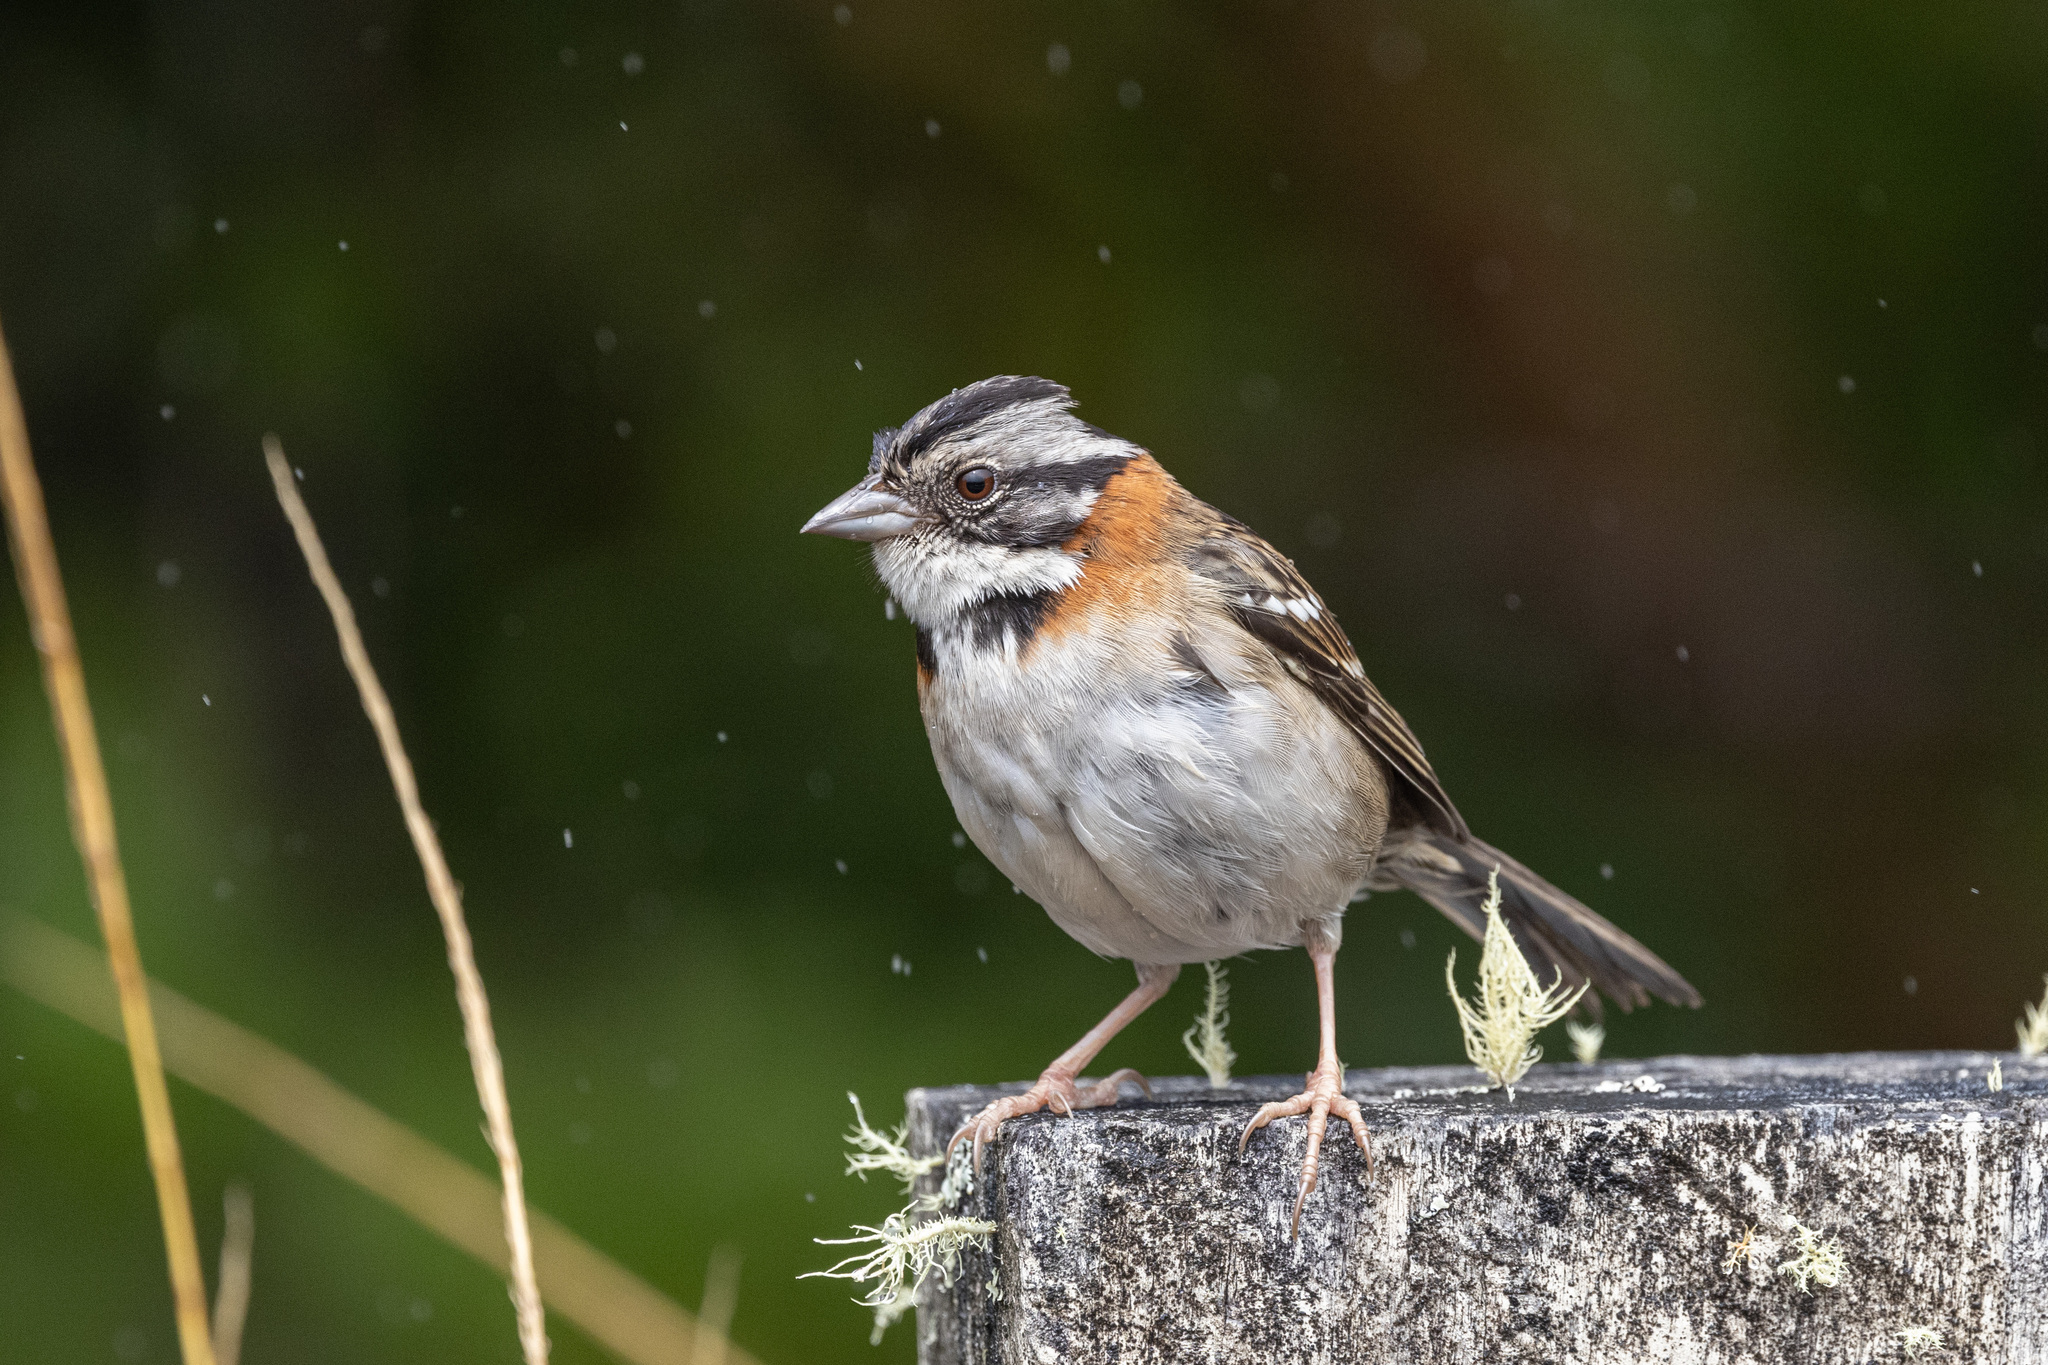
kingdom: Animalia
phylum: Chordata
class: Aves
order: Passeriformes
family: Passerellidae
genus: Zonotrichia
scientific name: Zonotrichia capensis
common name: Rufous-collared sparrow
